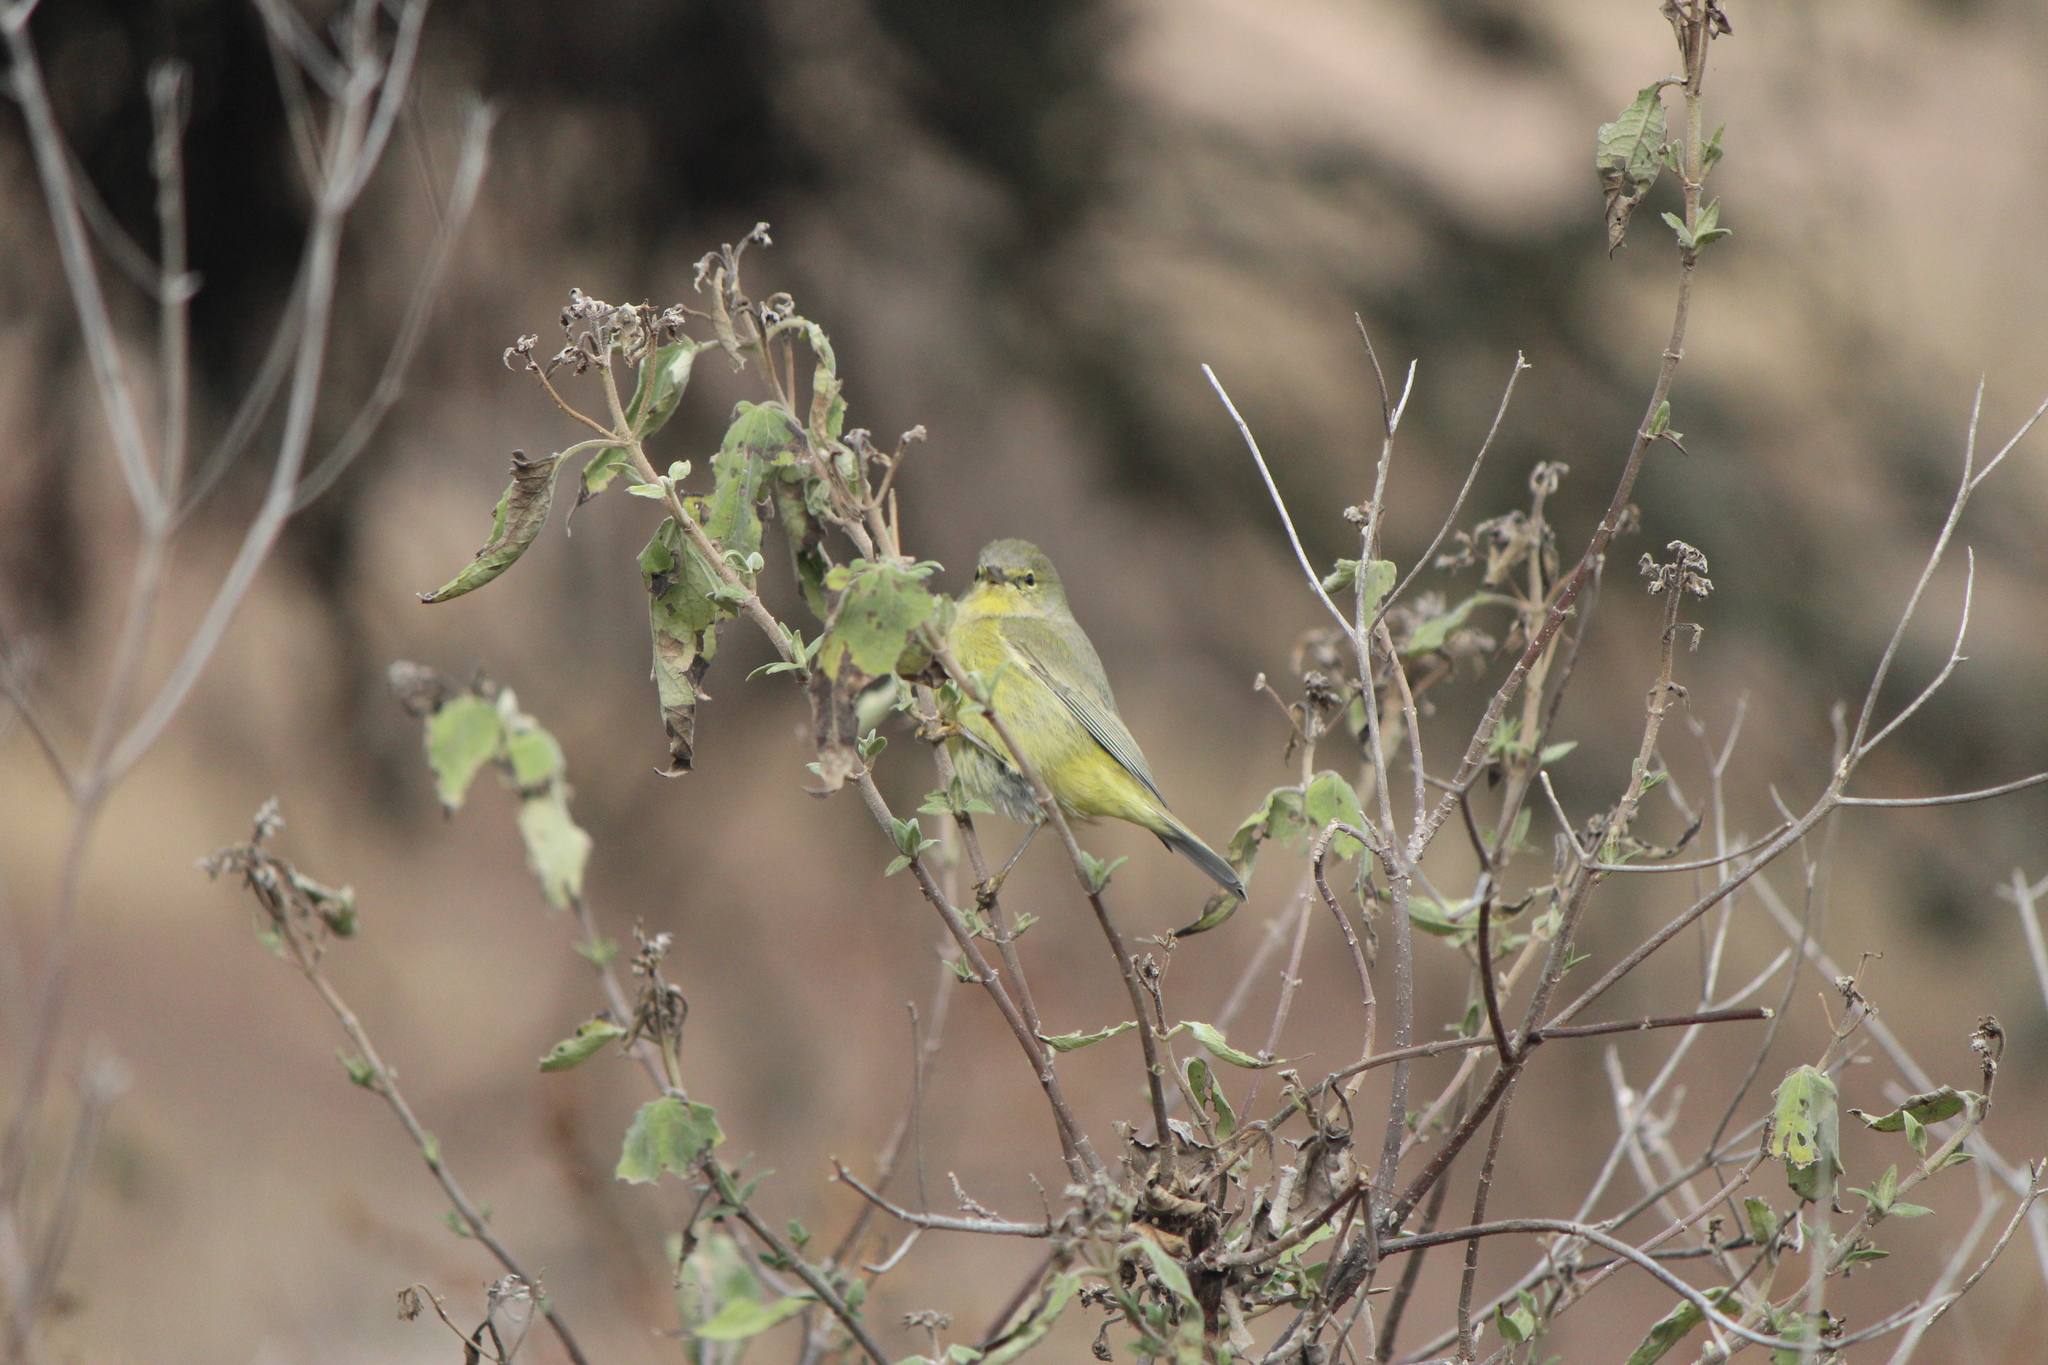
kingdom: Animalia
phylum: Chordata
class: Aves
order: Passeriformes
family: Parulidae
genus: Leiothlypis
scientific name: Leiothlypis celata
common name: Orange-crowned warbler
